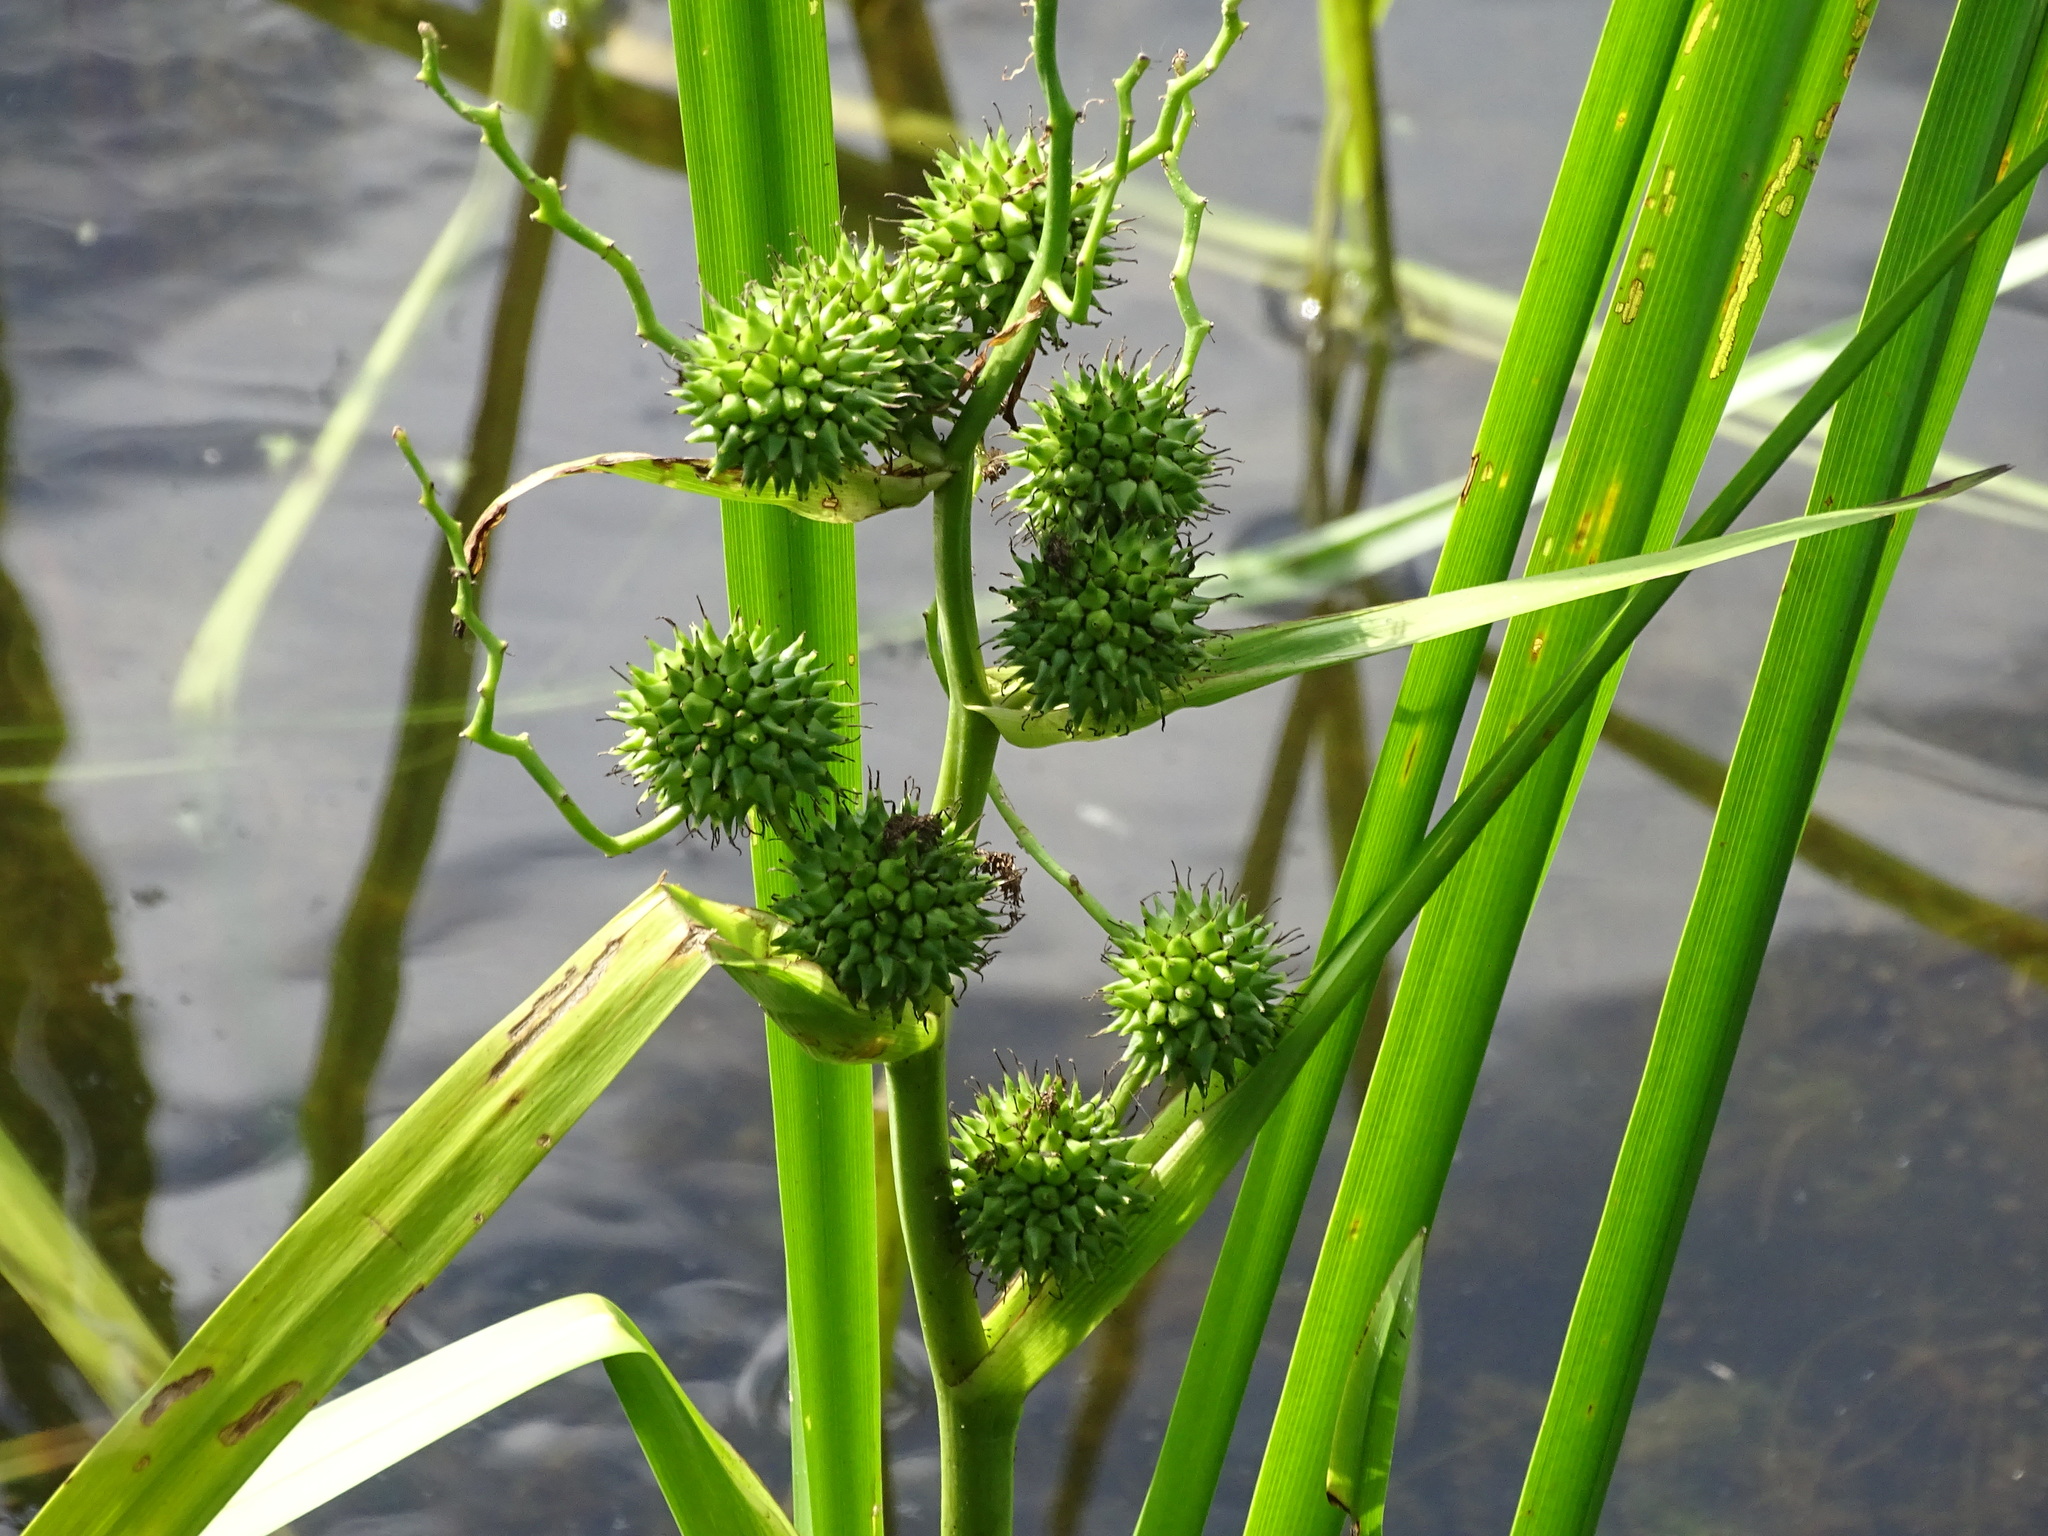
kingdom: Plantae
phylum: Tracheophyta
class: Liliopsida
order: Poales
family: Typhaceae
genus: Sparganium
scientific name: Sparganium erectum
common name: Branched bur-reed
